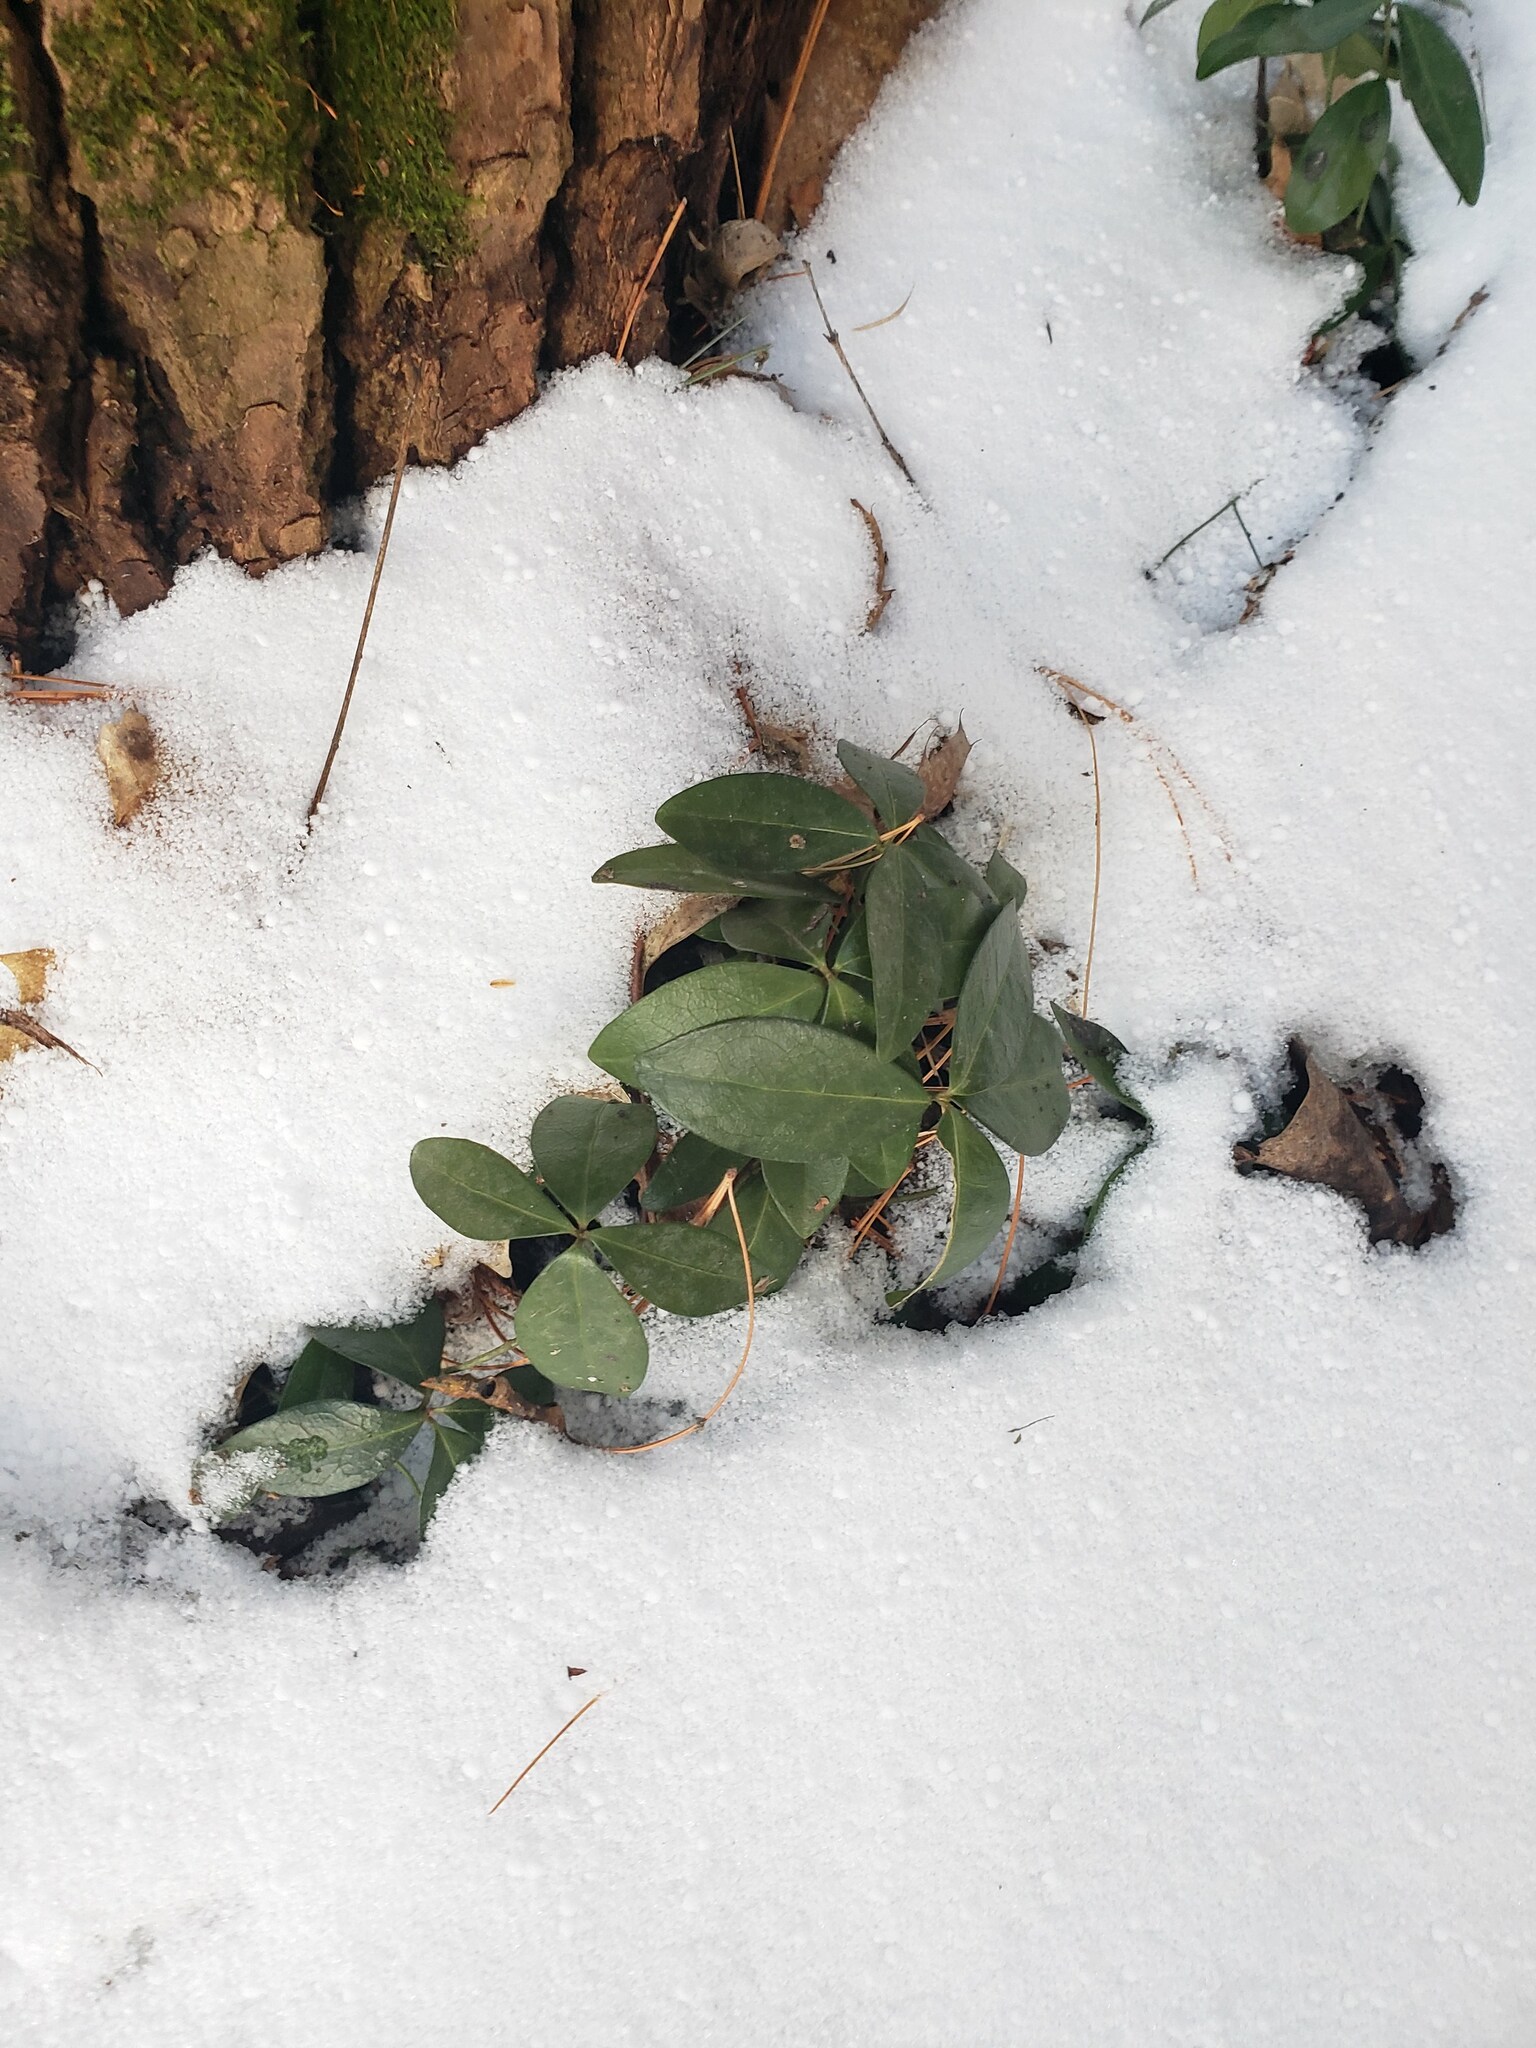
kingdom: Plantae
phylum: Tracheophyta
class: Magnoliopsida
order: Gentianales
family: Apocynaceae
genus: Vinca
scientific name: Vinca minor
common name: Lesser periwinkle
